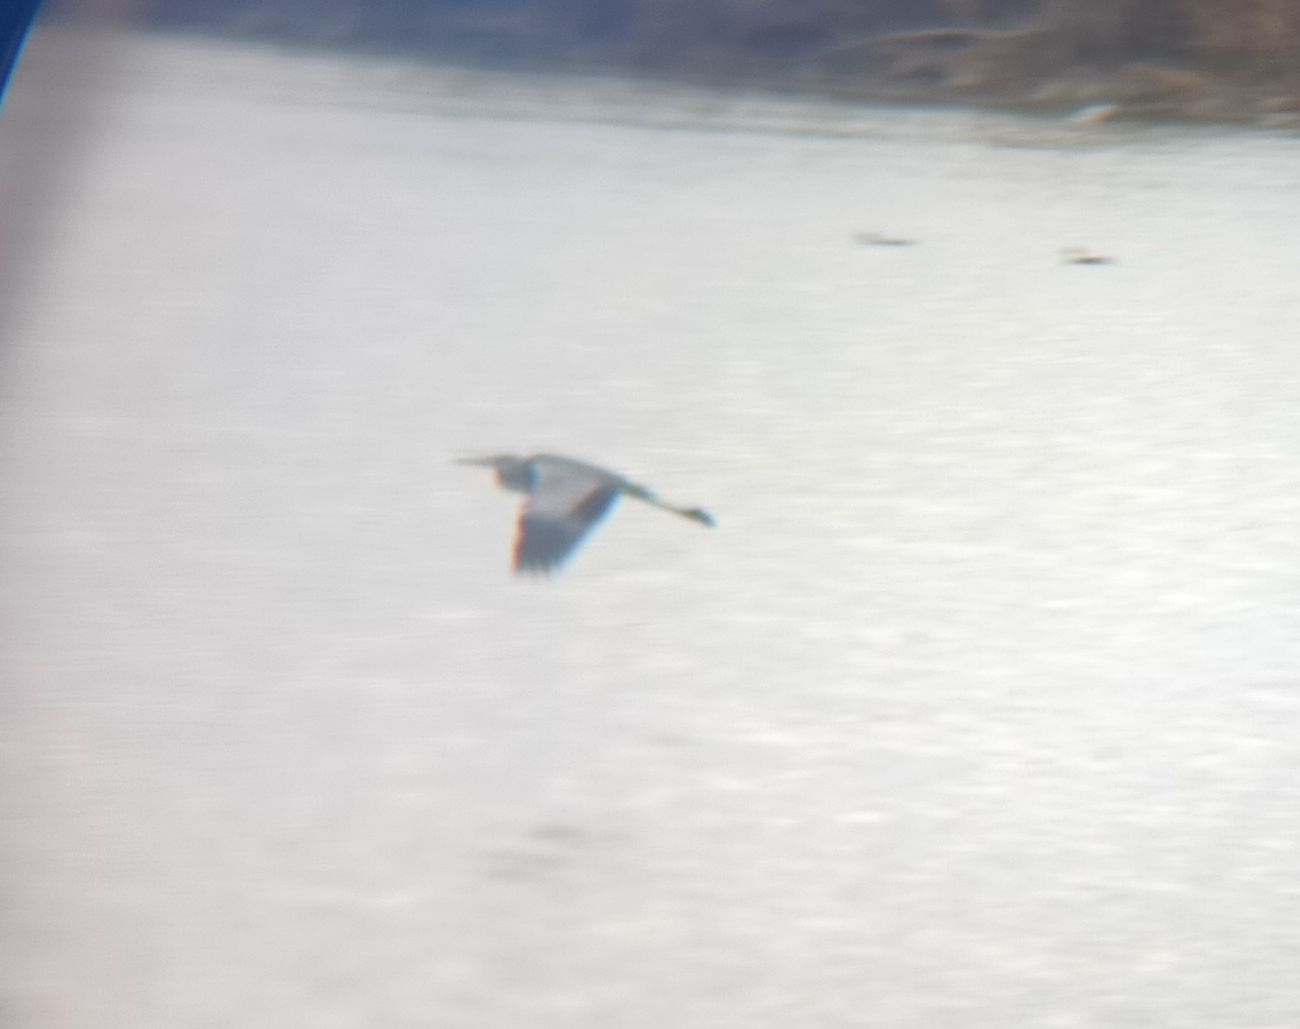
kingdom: Animalia
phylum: Chordata
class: Aves
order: Pelecaniformes
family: Ardeidae
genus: Ardea
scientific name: Ardea cinerea
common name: Grey heron
